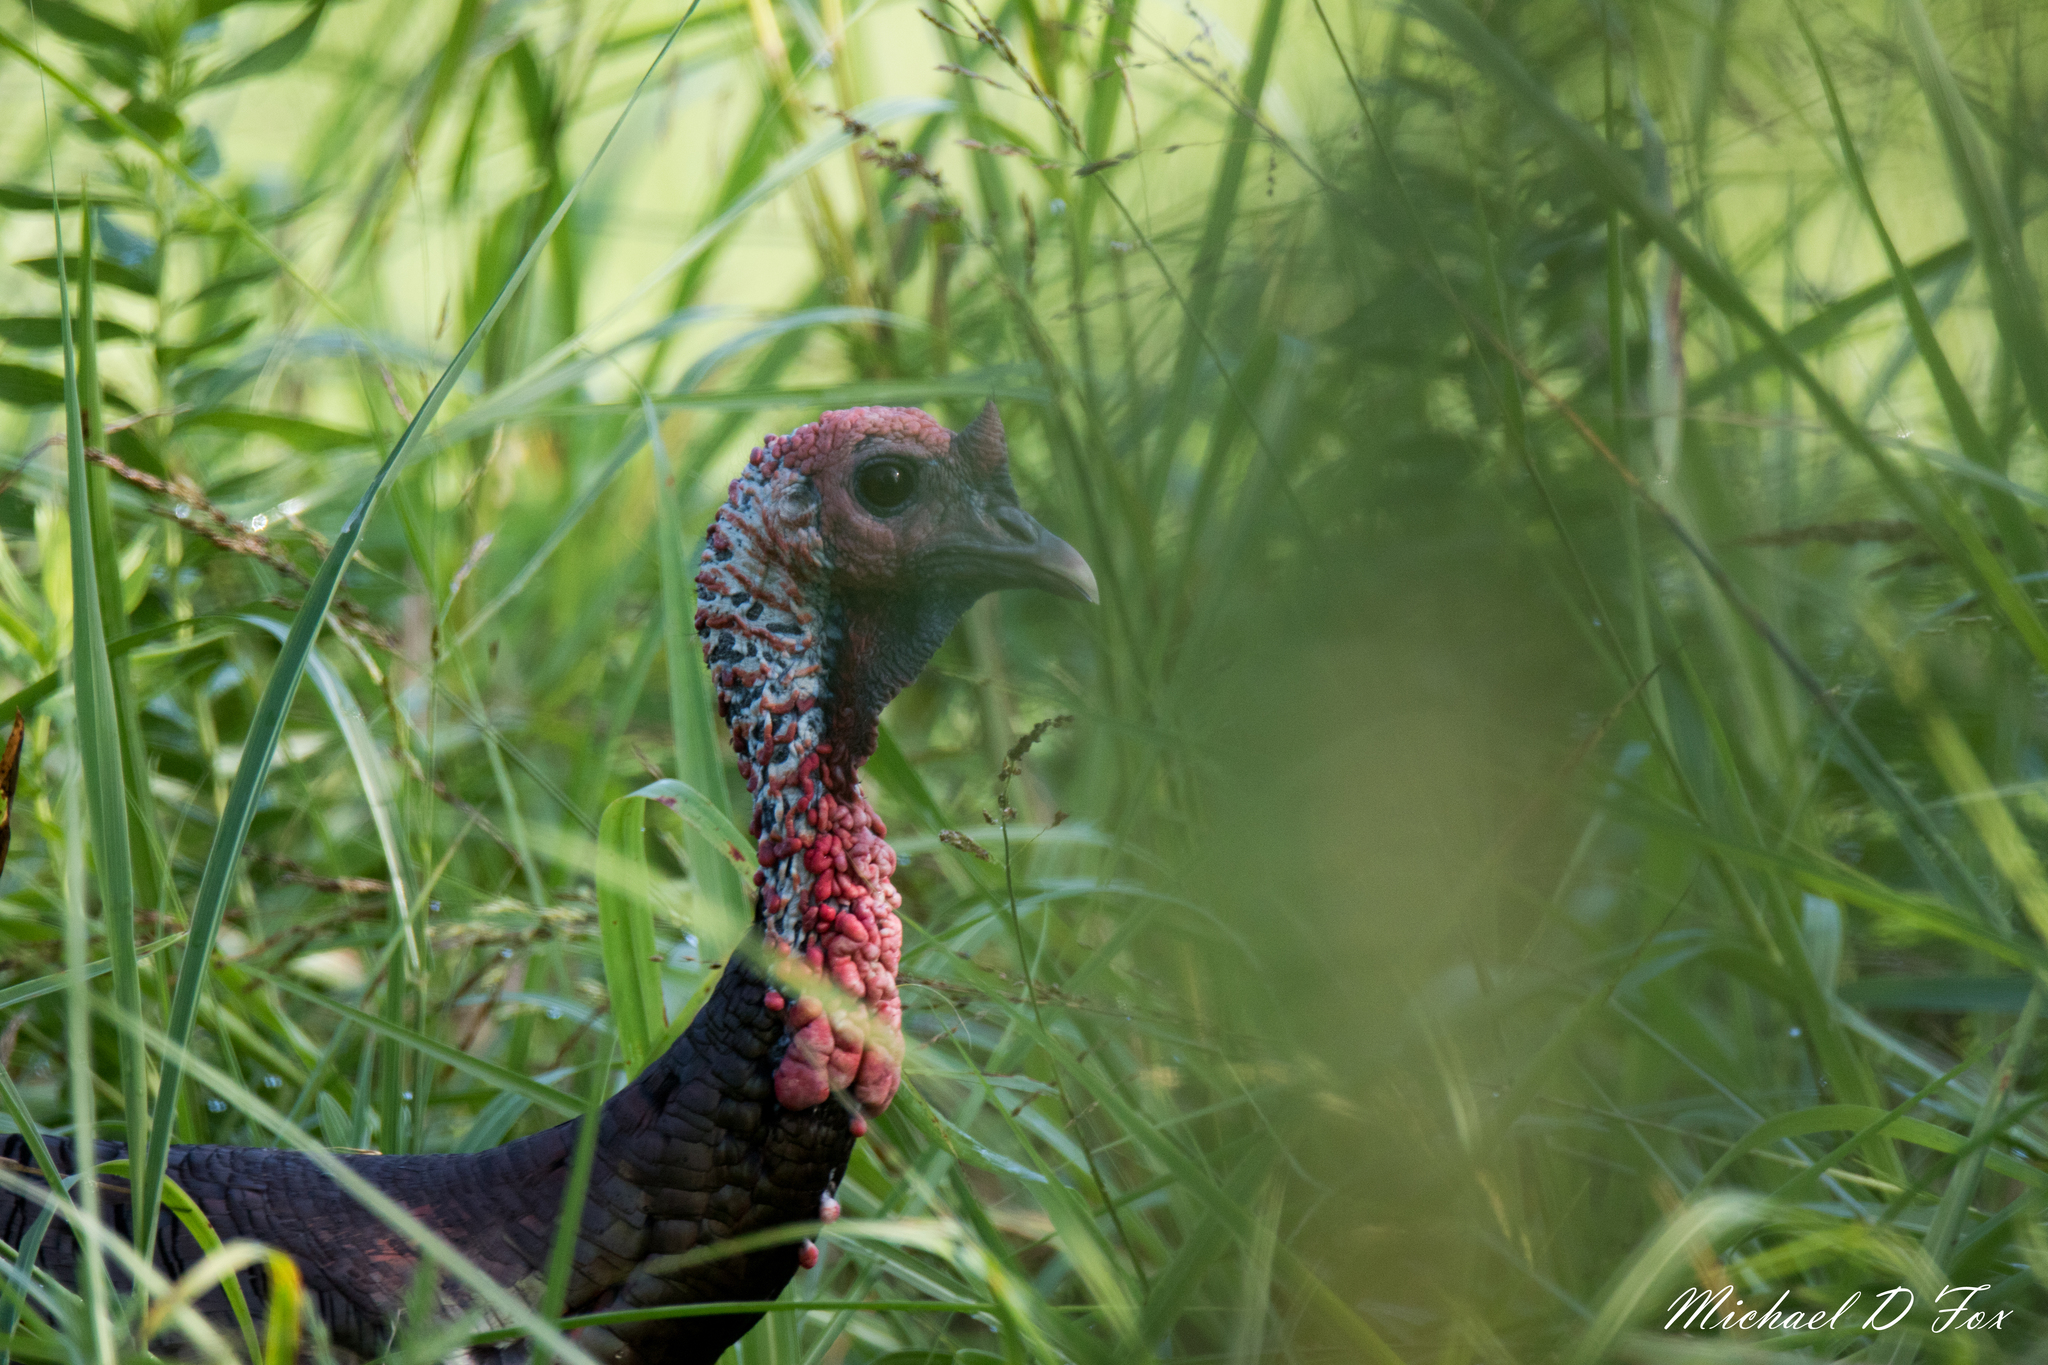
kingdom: Animalia
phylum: Chordata
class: Aves
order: Galliformes
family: Phasianidae
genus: Meleagris
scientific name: Meleagris gallopavo
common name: Wild turkey
